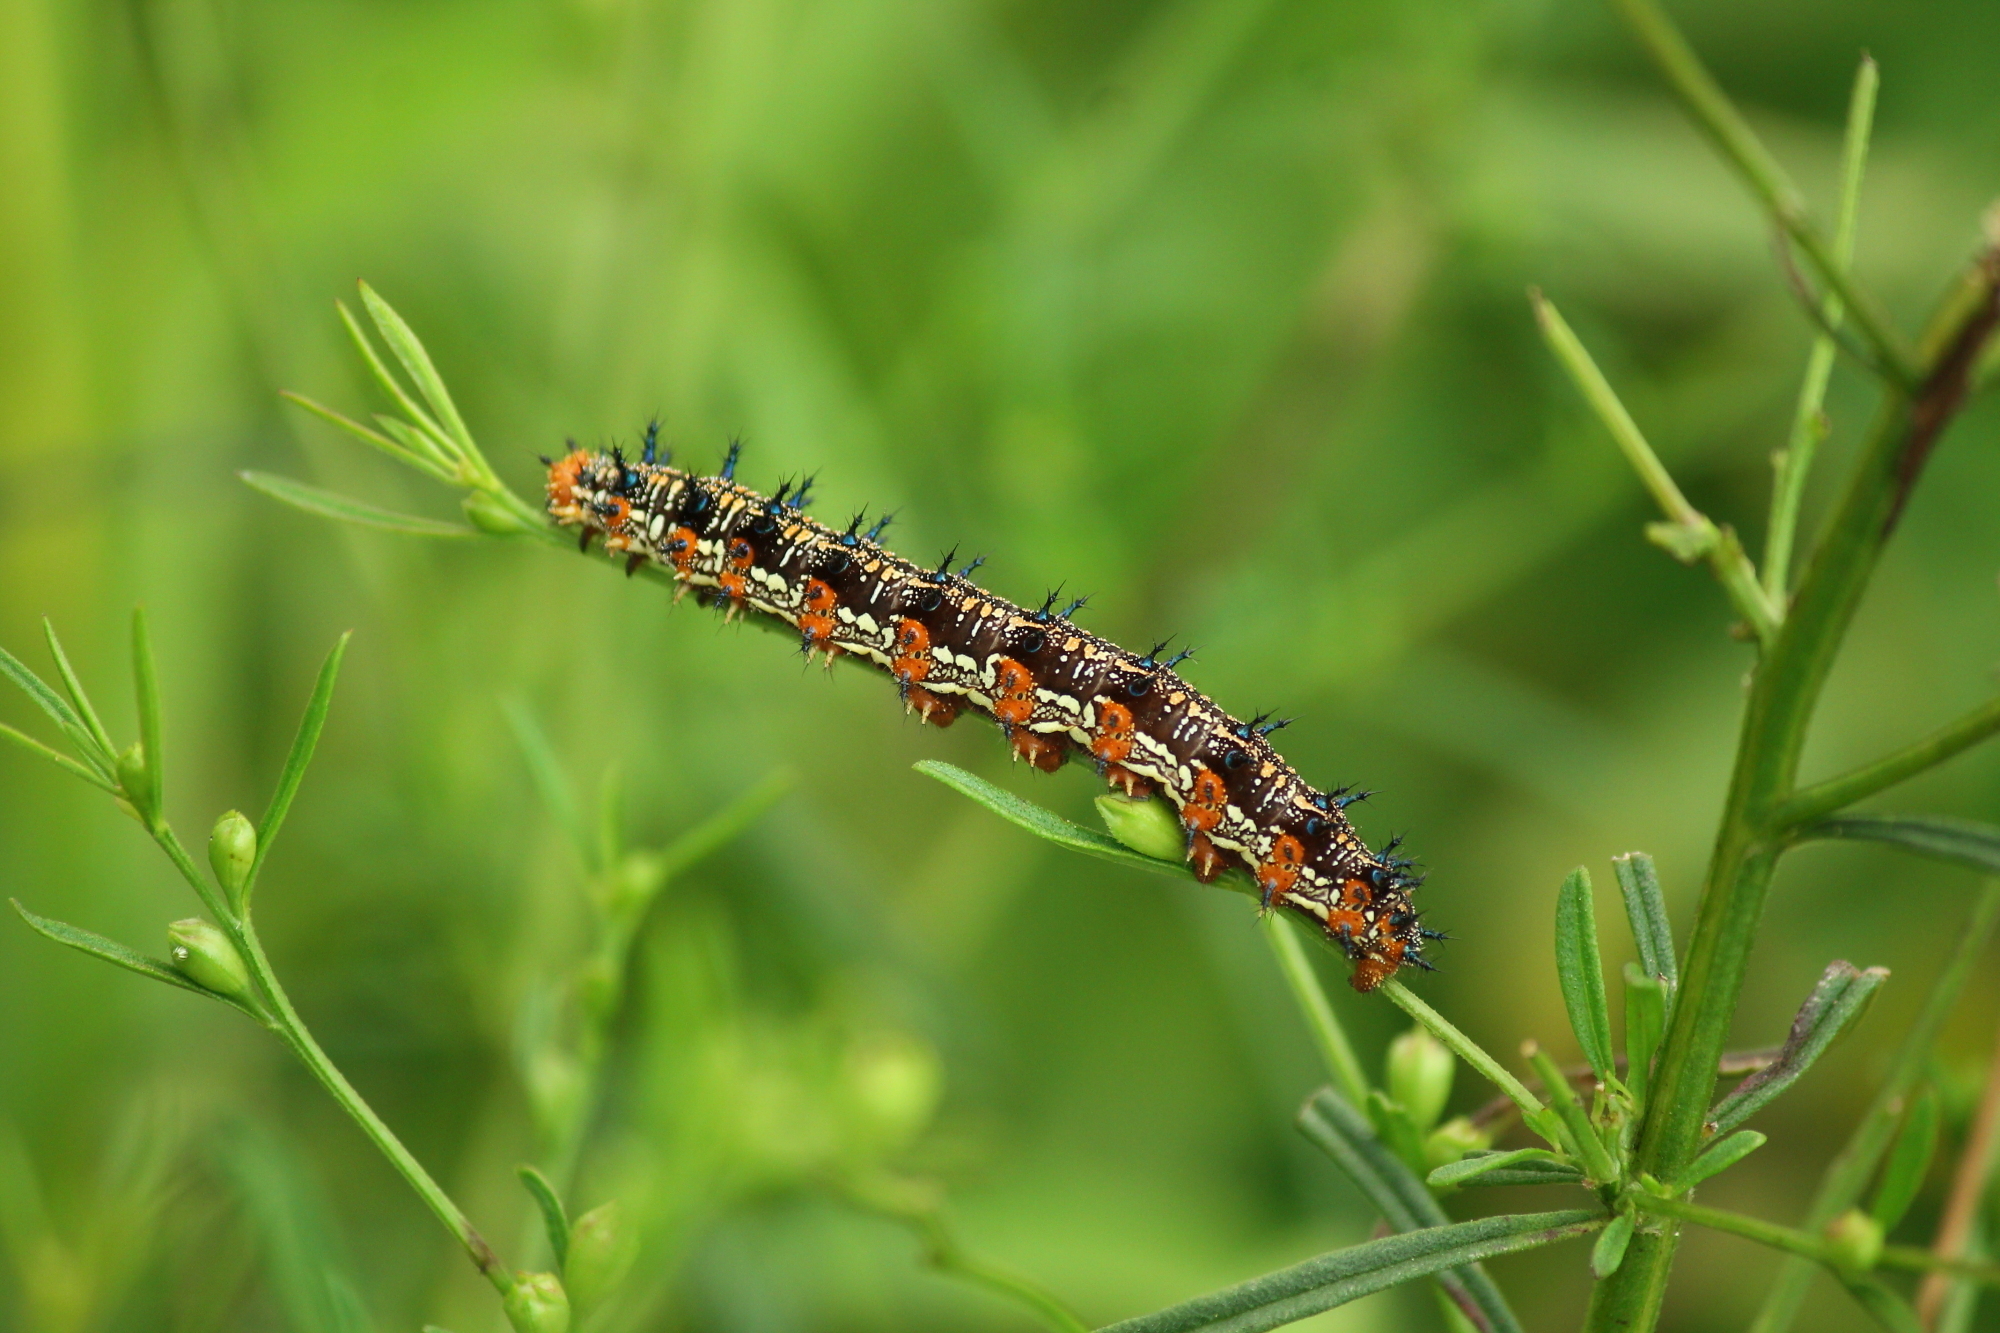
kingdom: Animalia
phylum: Arthropoda
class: Insecta
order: Lepidoptera
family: Nymphalidae
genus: Junonia
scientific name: Junonia coenia
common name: Common buckeye
